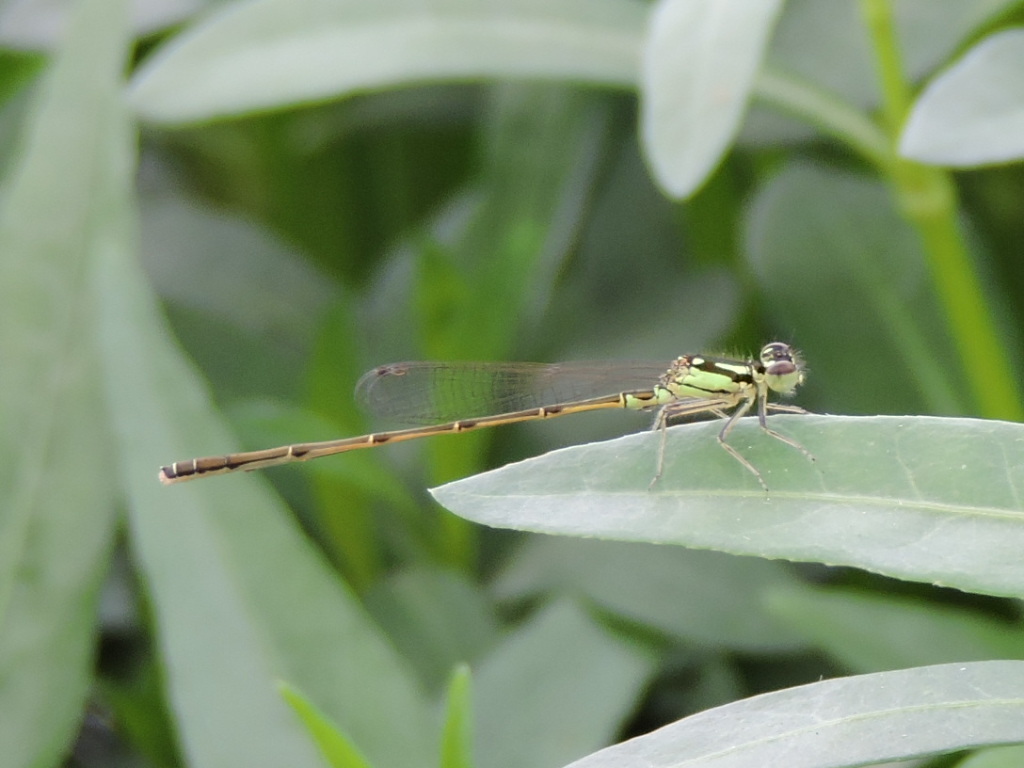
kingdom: Animalia
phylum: Arthropoda
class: Insecta
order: Odonata
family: Coenagrionidae
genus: Ischnura
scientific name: Ischnura posita
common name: Fragile forktail
